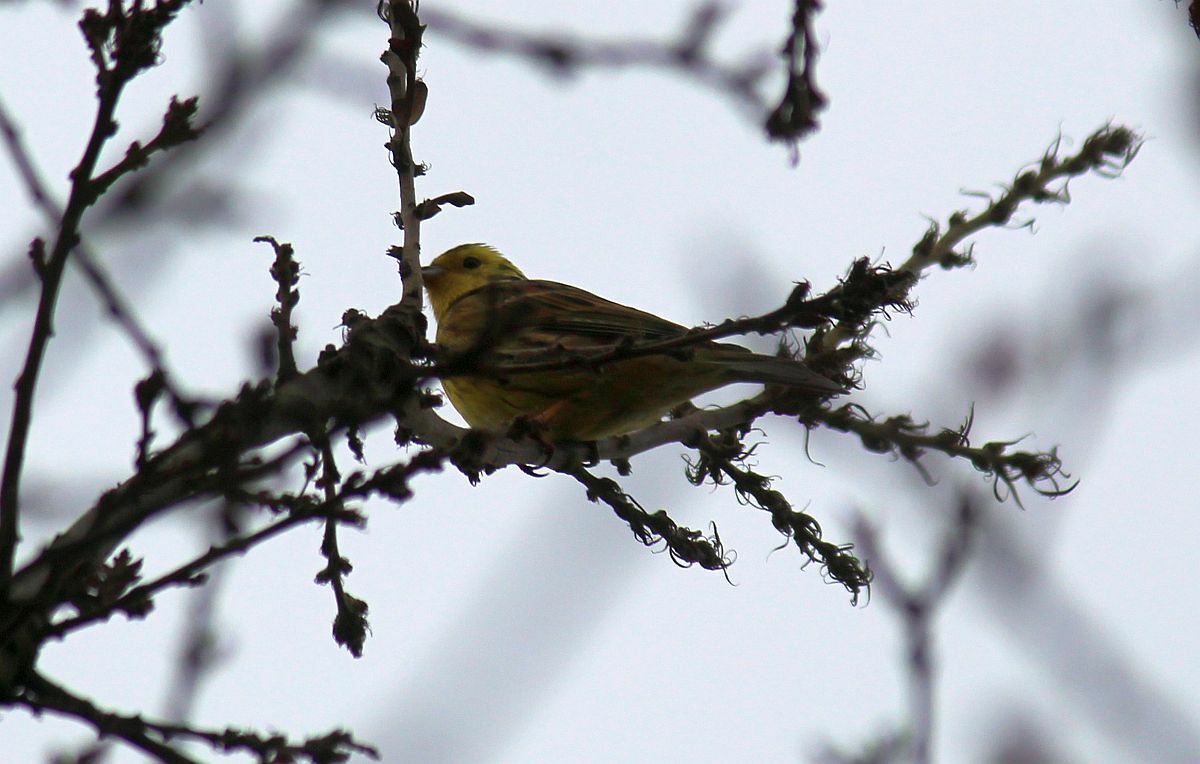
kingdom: Animalia
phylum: Chordata
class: Aves
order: Passeriformes
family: Emberizidae
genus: Emberiza
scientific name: Emberiza citrinella
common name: Yellowhammer
